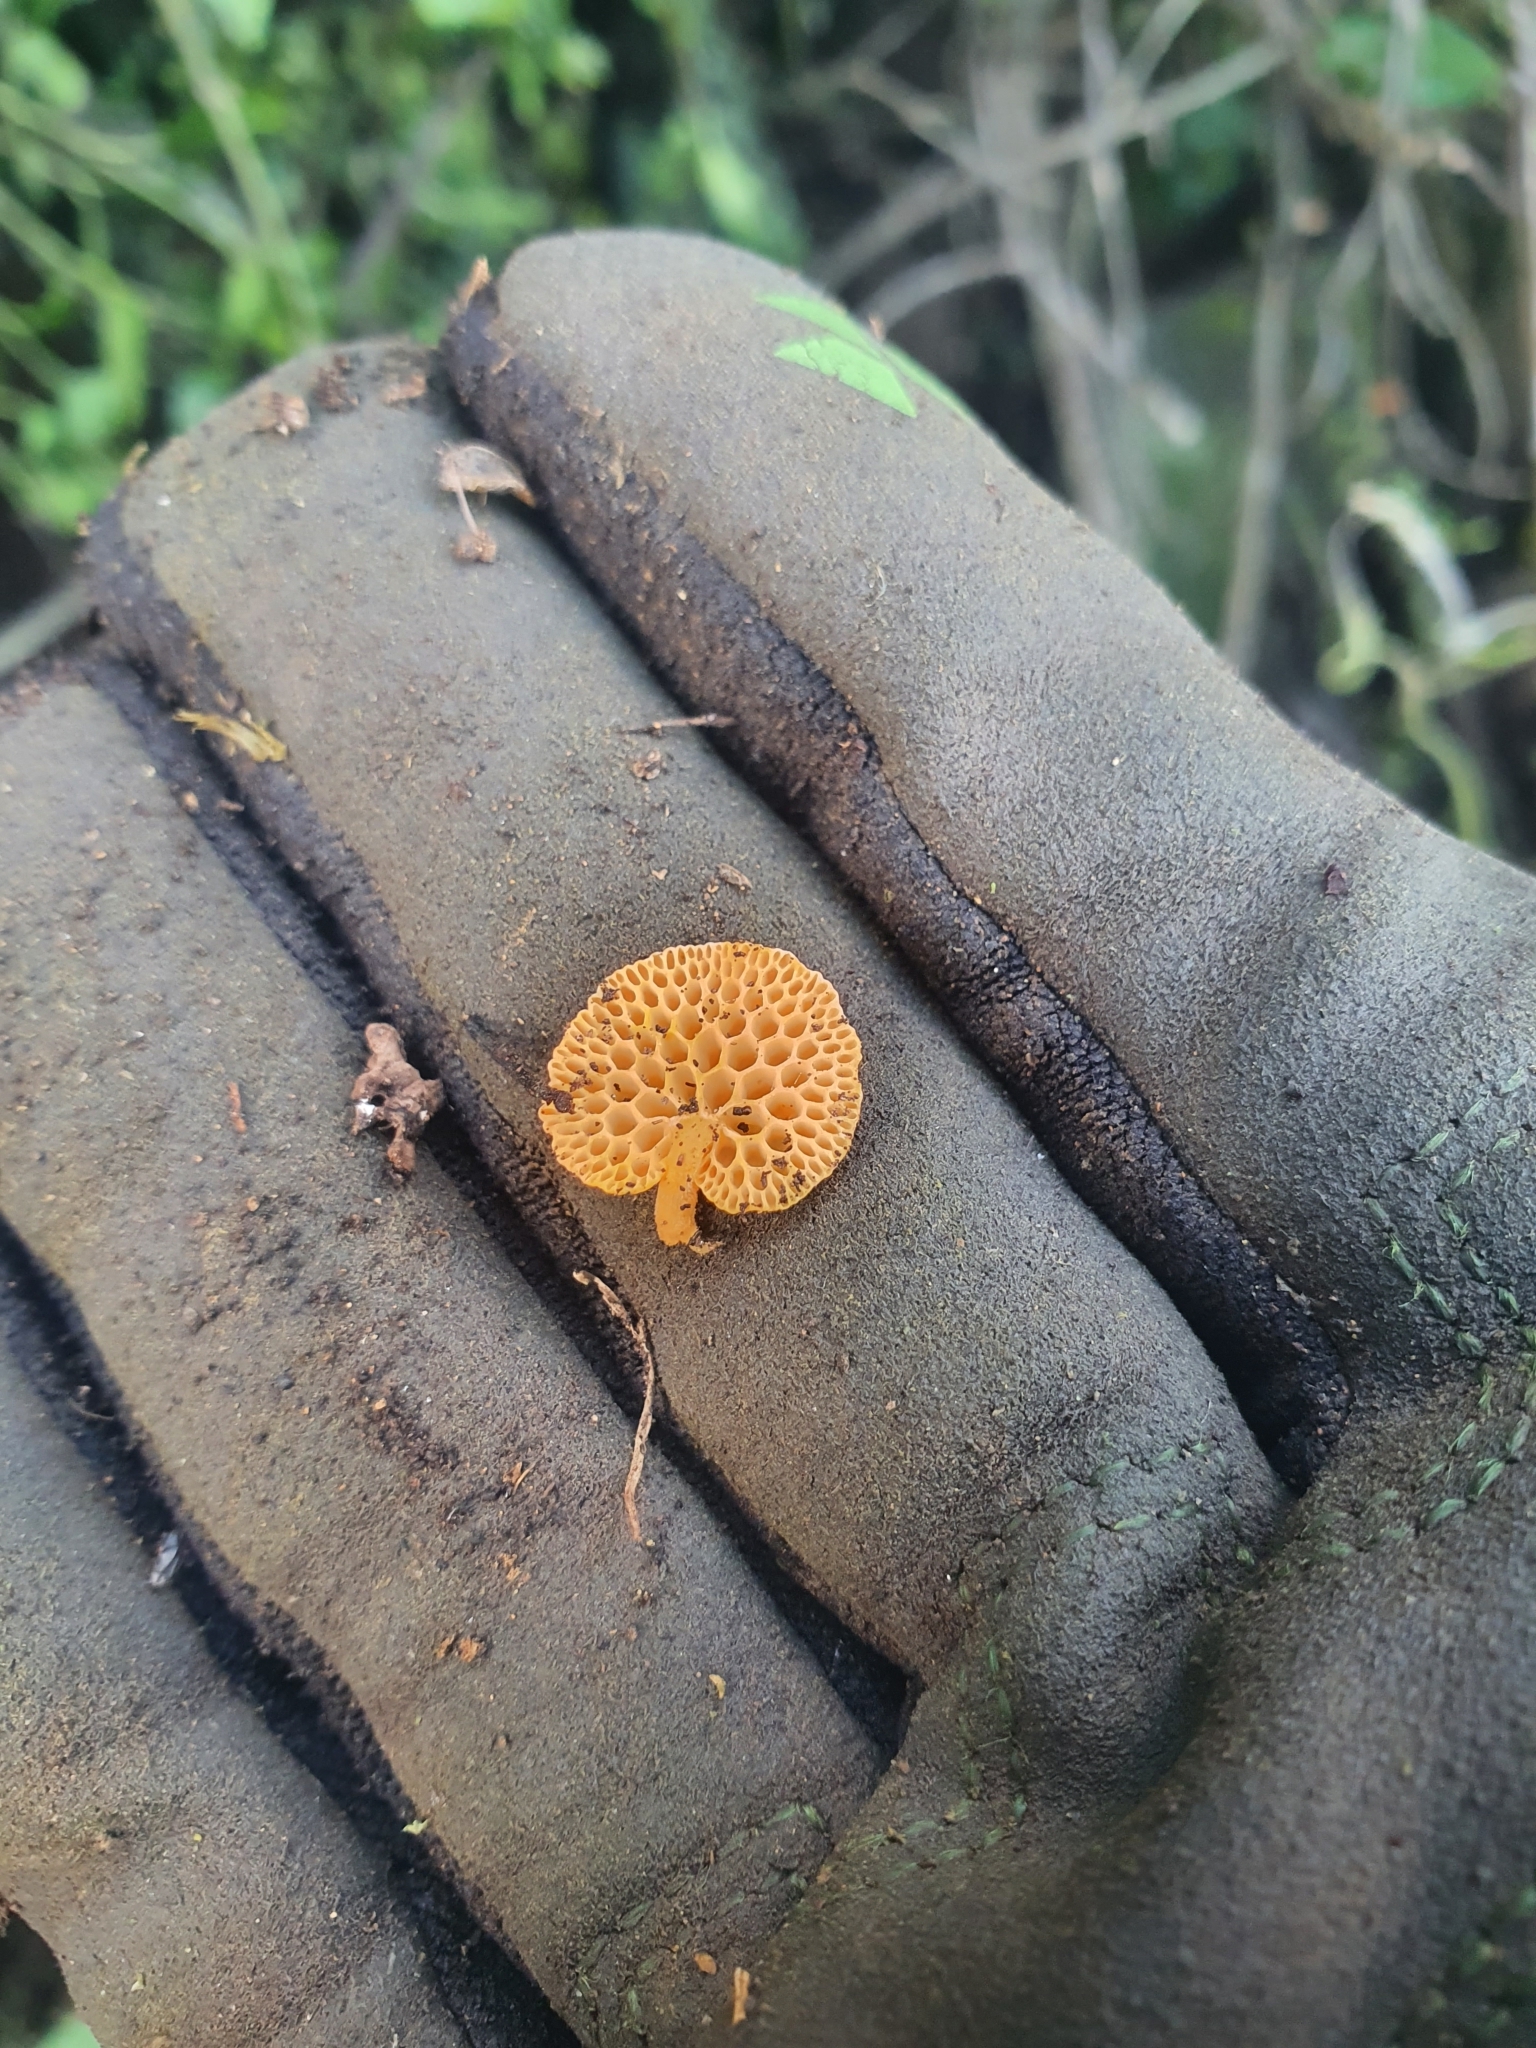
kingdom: Fungi
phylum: Basidiomycota
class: Agaricomycetes
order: Agaricales
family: Mycenaceae
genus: Favolaschia
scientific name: Favolaschia claudopus
